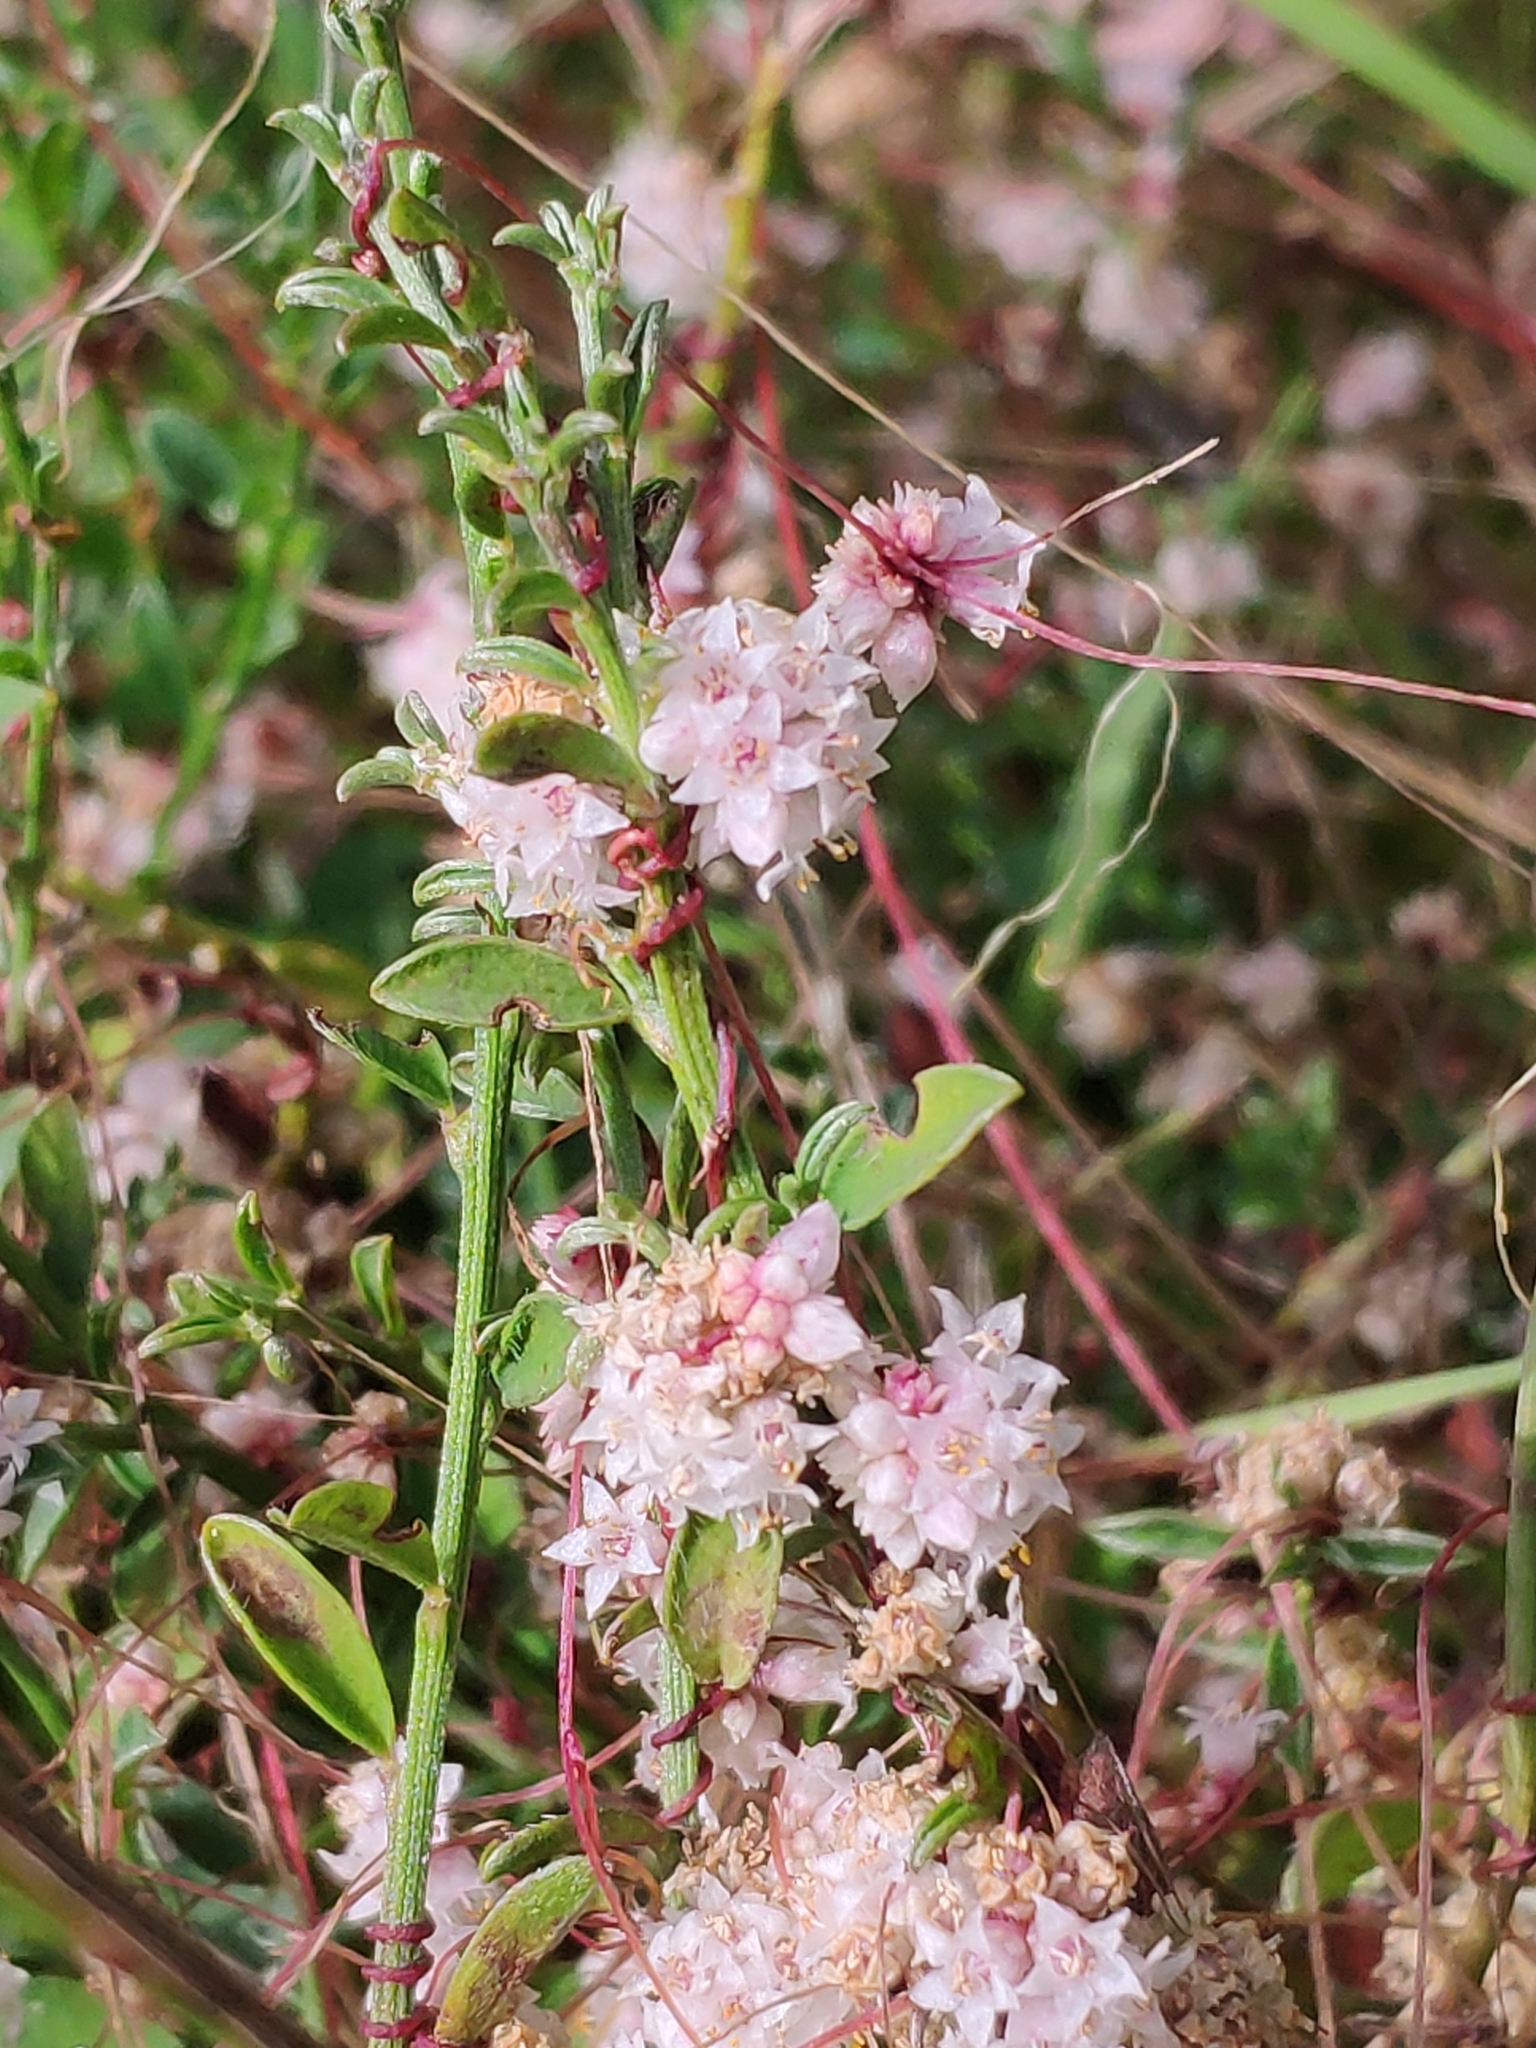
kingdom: Plantae
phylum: Tracheophyta
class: Magnoliopsida
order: Solanales
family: Convolvulaceae
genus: Cuscuta
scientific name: Cuscuta epithymum
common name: Clover dodder
